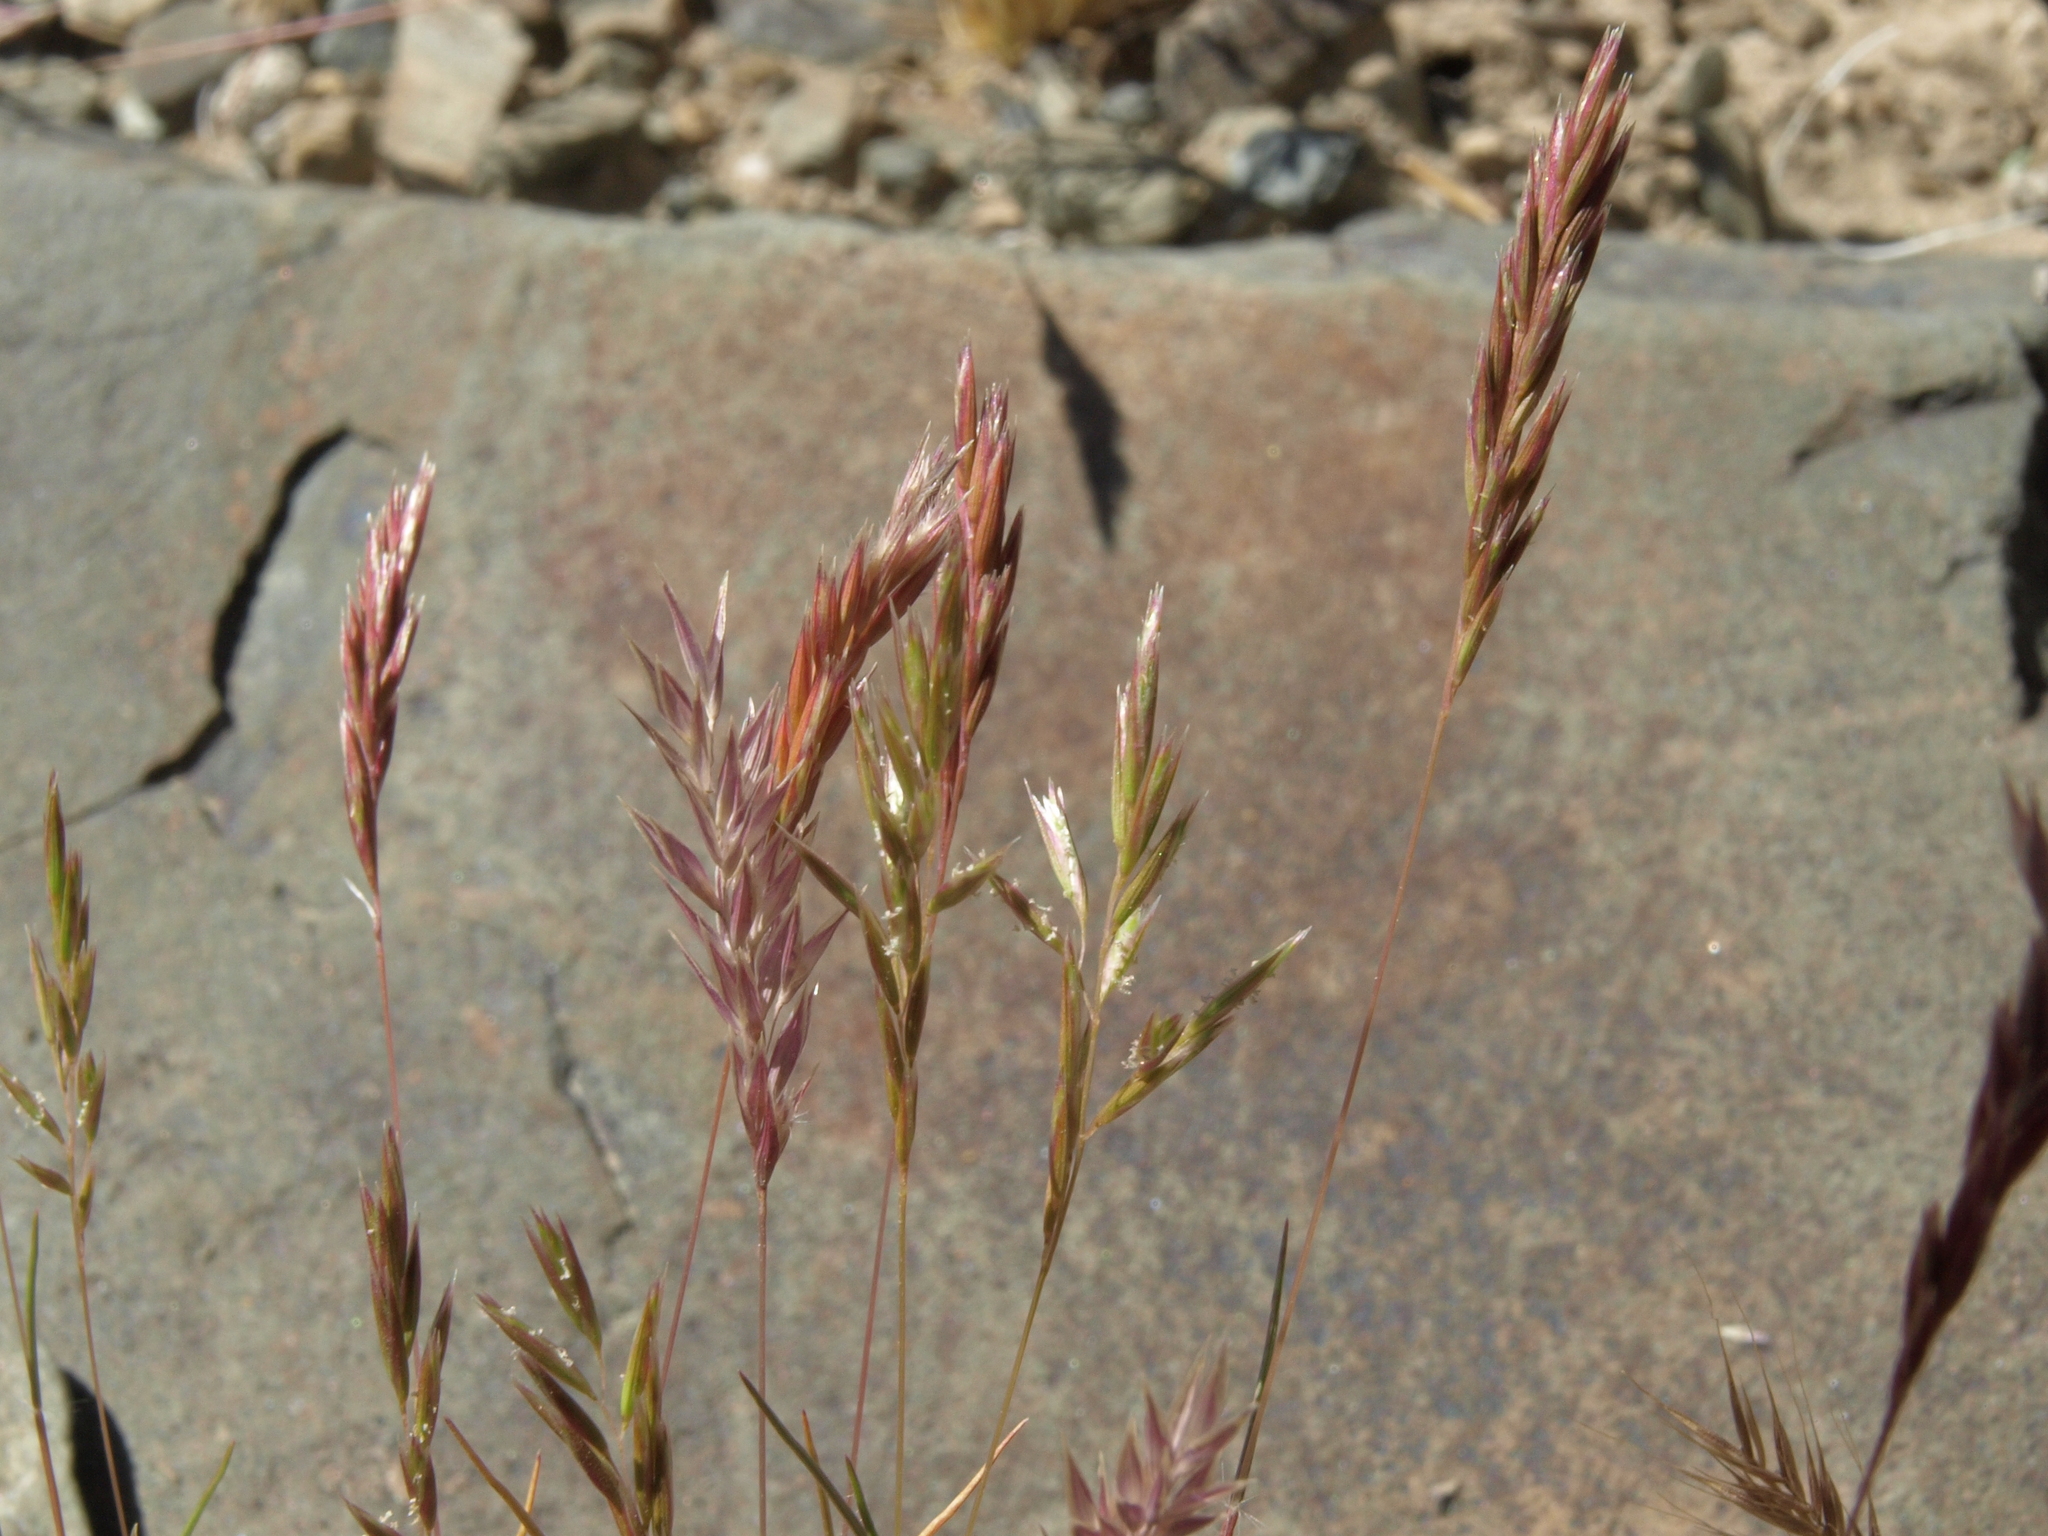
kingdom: Plantae
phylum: Tracheophyta
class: Liliopsida
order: Poales
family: Poaceae
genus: Schismus
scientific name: Schismus arabicus
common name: Arabian schismus
